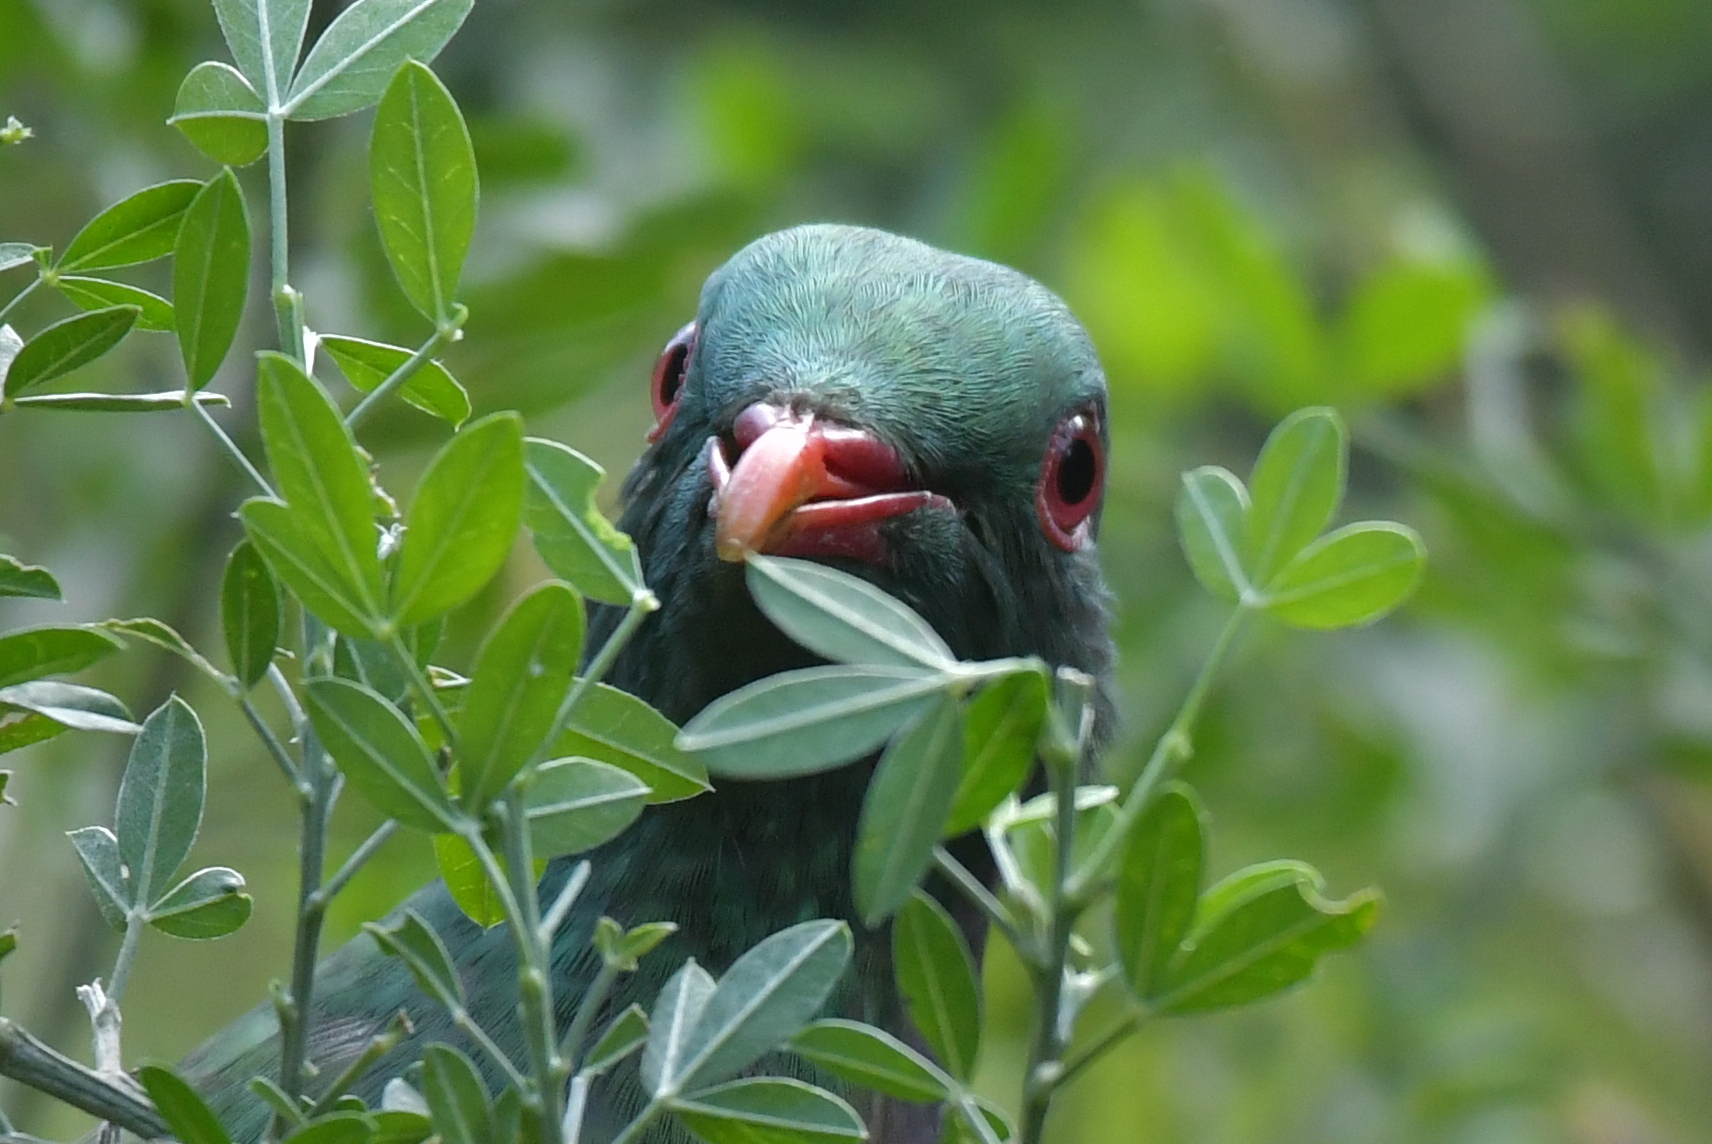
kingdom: Animalia
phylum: Chordata
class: Aves
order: Columbiformes
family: Columbidae
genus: Hemiphaga
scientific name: Hemiphaga novaeseelandiae
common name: New zealand pigeon
